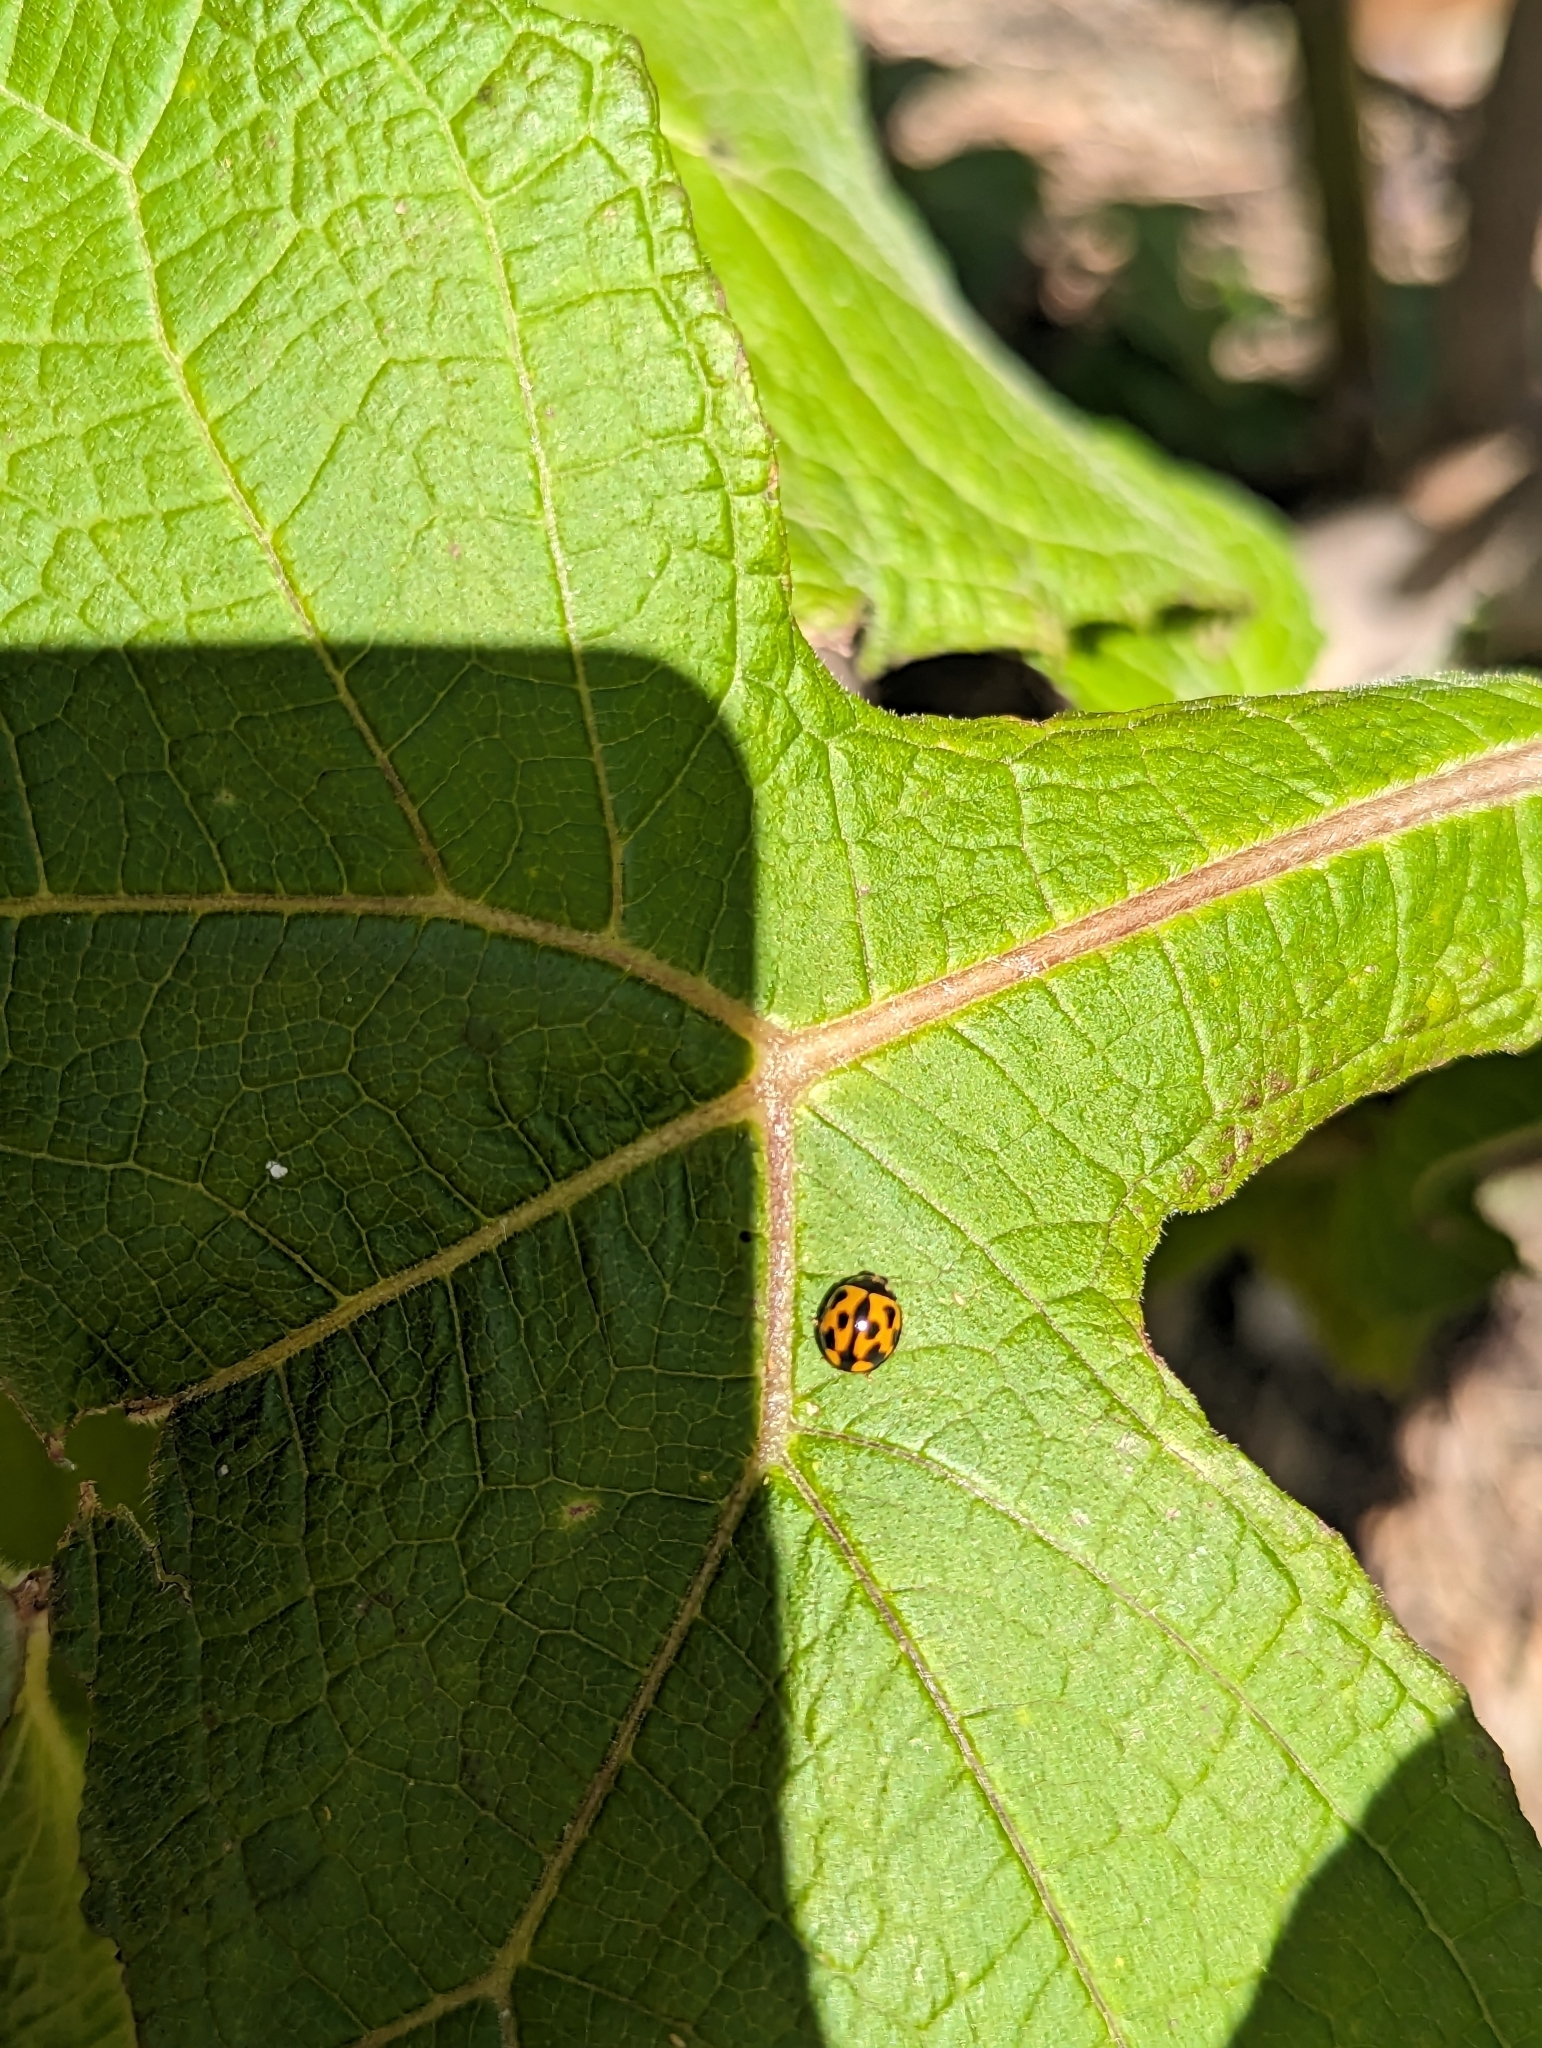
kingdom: Animalia
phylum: Arthropoda
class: Insecta
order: Coleoptera
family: Coccinellidae
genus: Coelophora
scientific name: Coelophora inaequalis
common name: Common australian lady beetle
